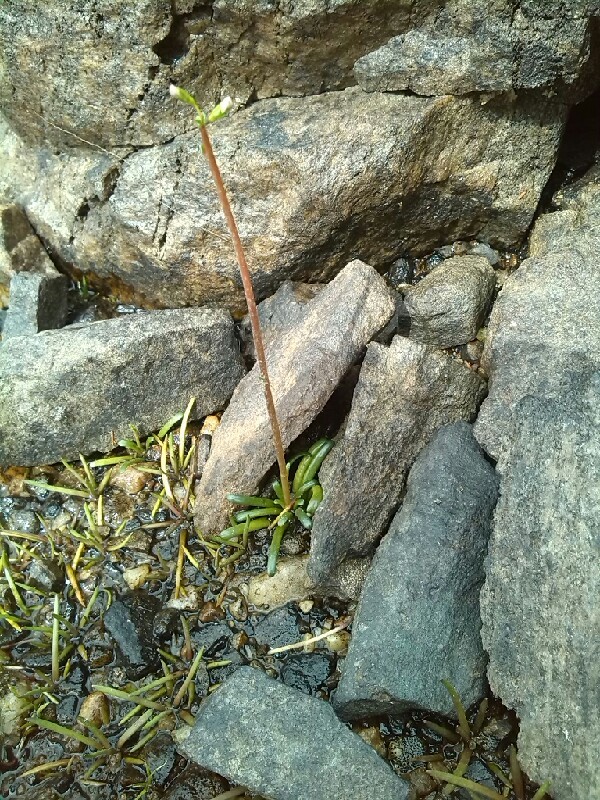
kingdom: Plantae
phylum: Tracheophyta
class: Magnoliopsida
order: Asterales
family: Campanulaceae
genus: Lobelia
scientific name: Lobelia dortmanna
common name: Water lobelia
